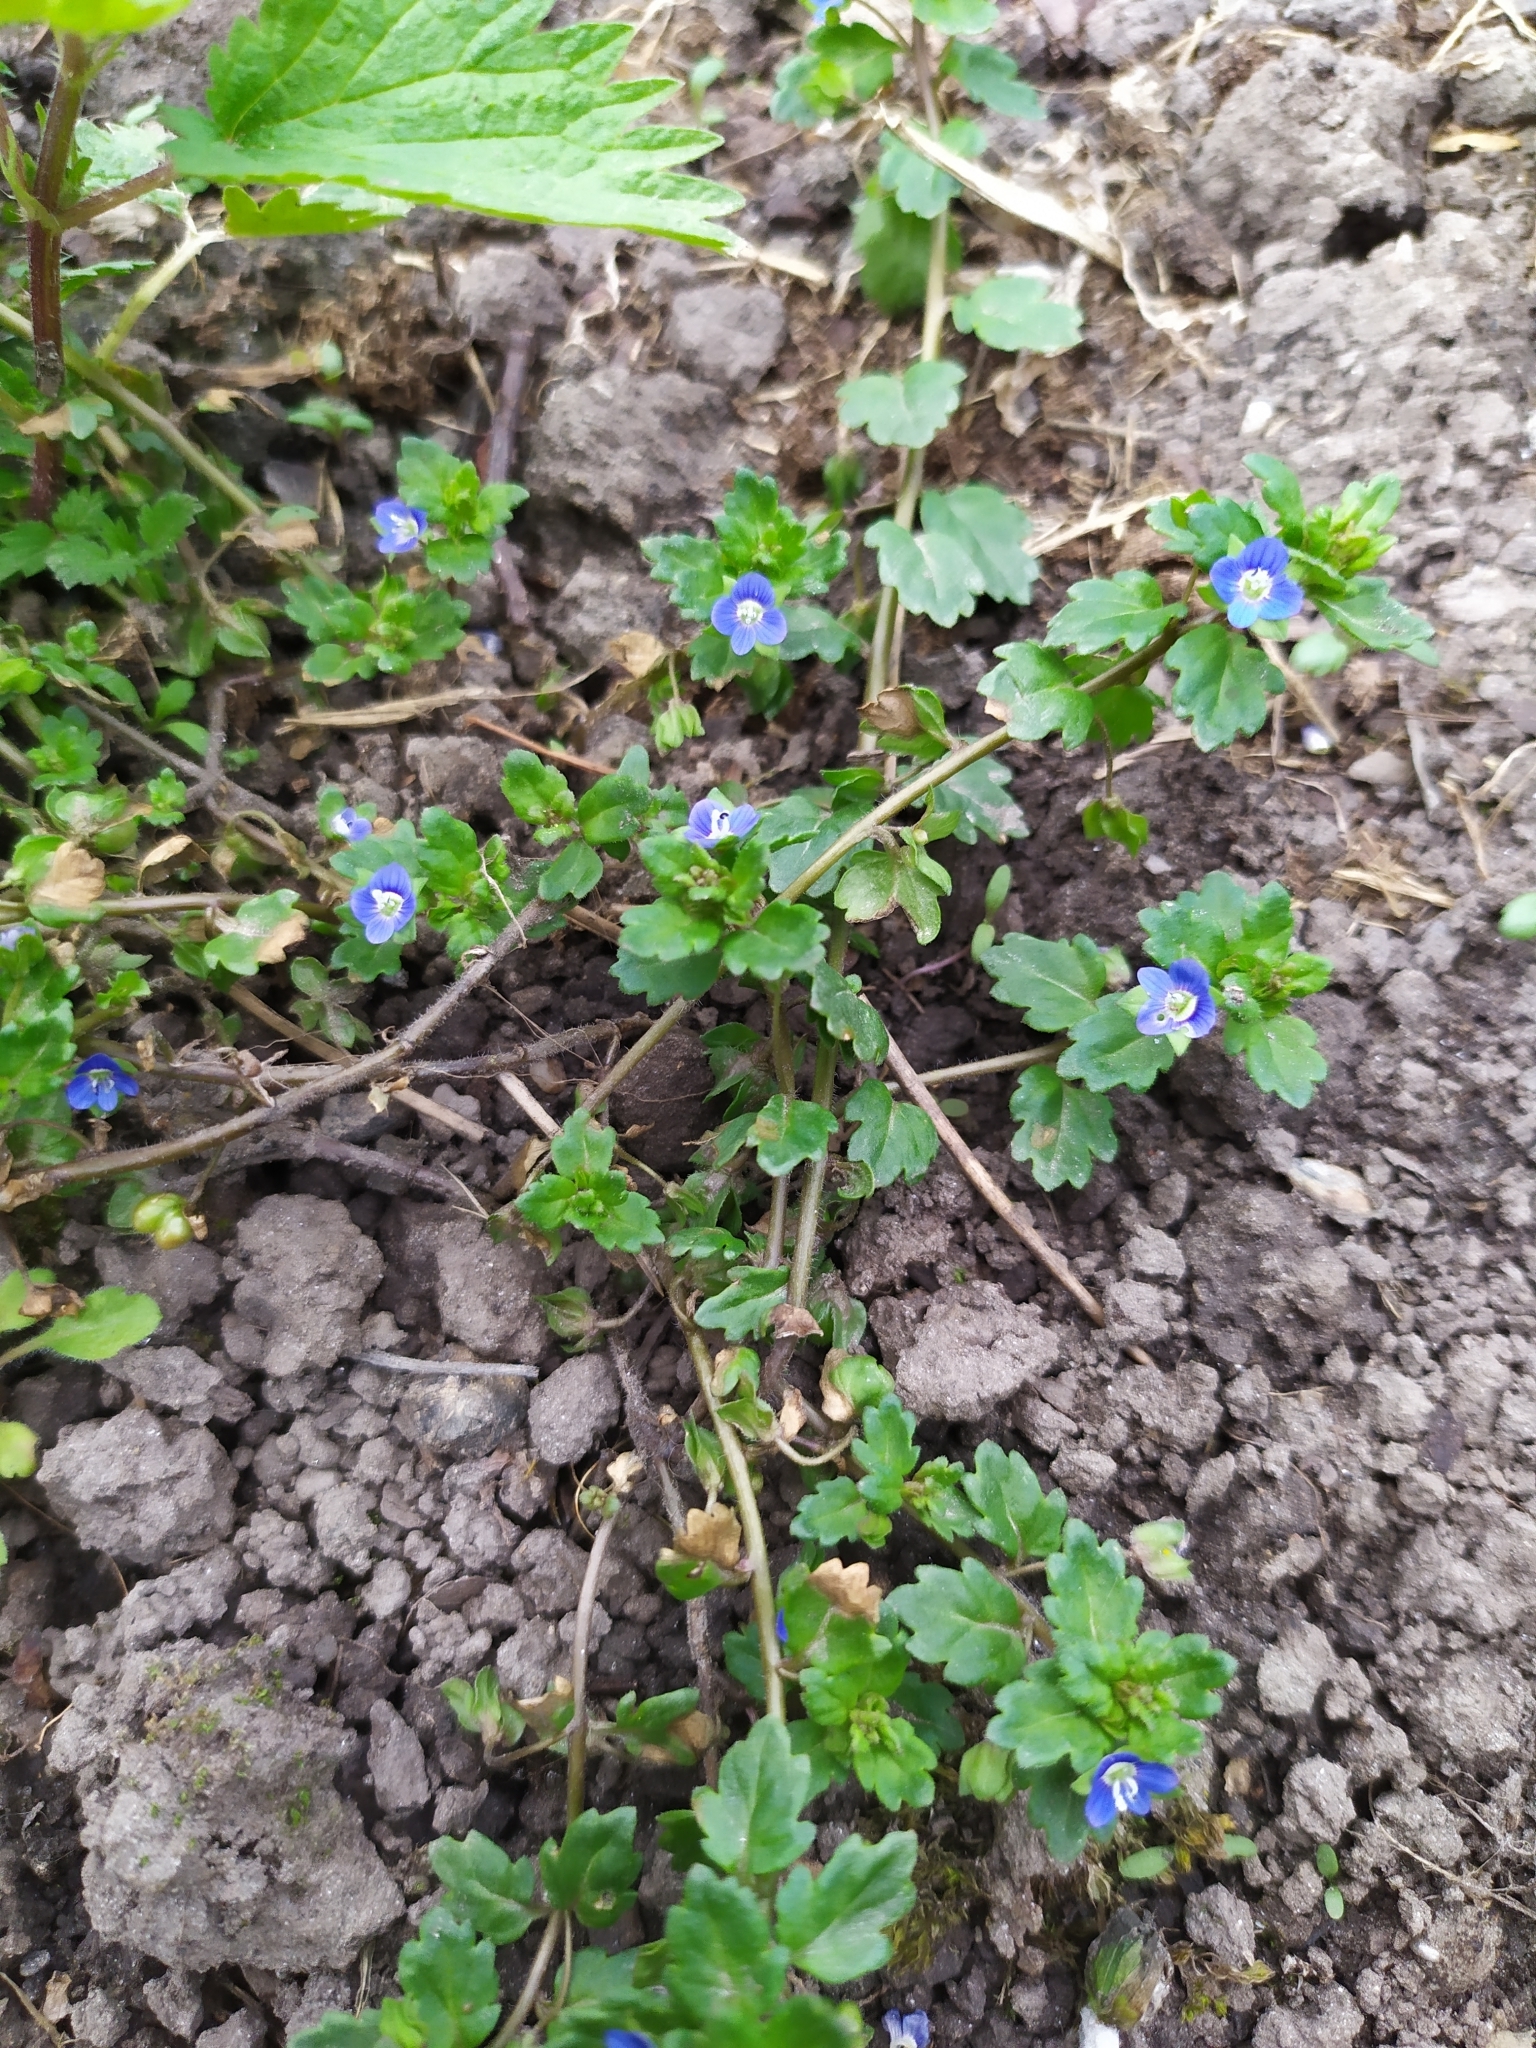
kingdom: Plantae
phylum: Tracheophyta
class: Magnoliopsida
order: Lamiales
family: Plantaginaceae
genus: Veronica
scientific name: Veronica polita
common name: Grey field-speedwell
